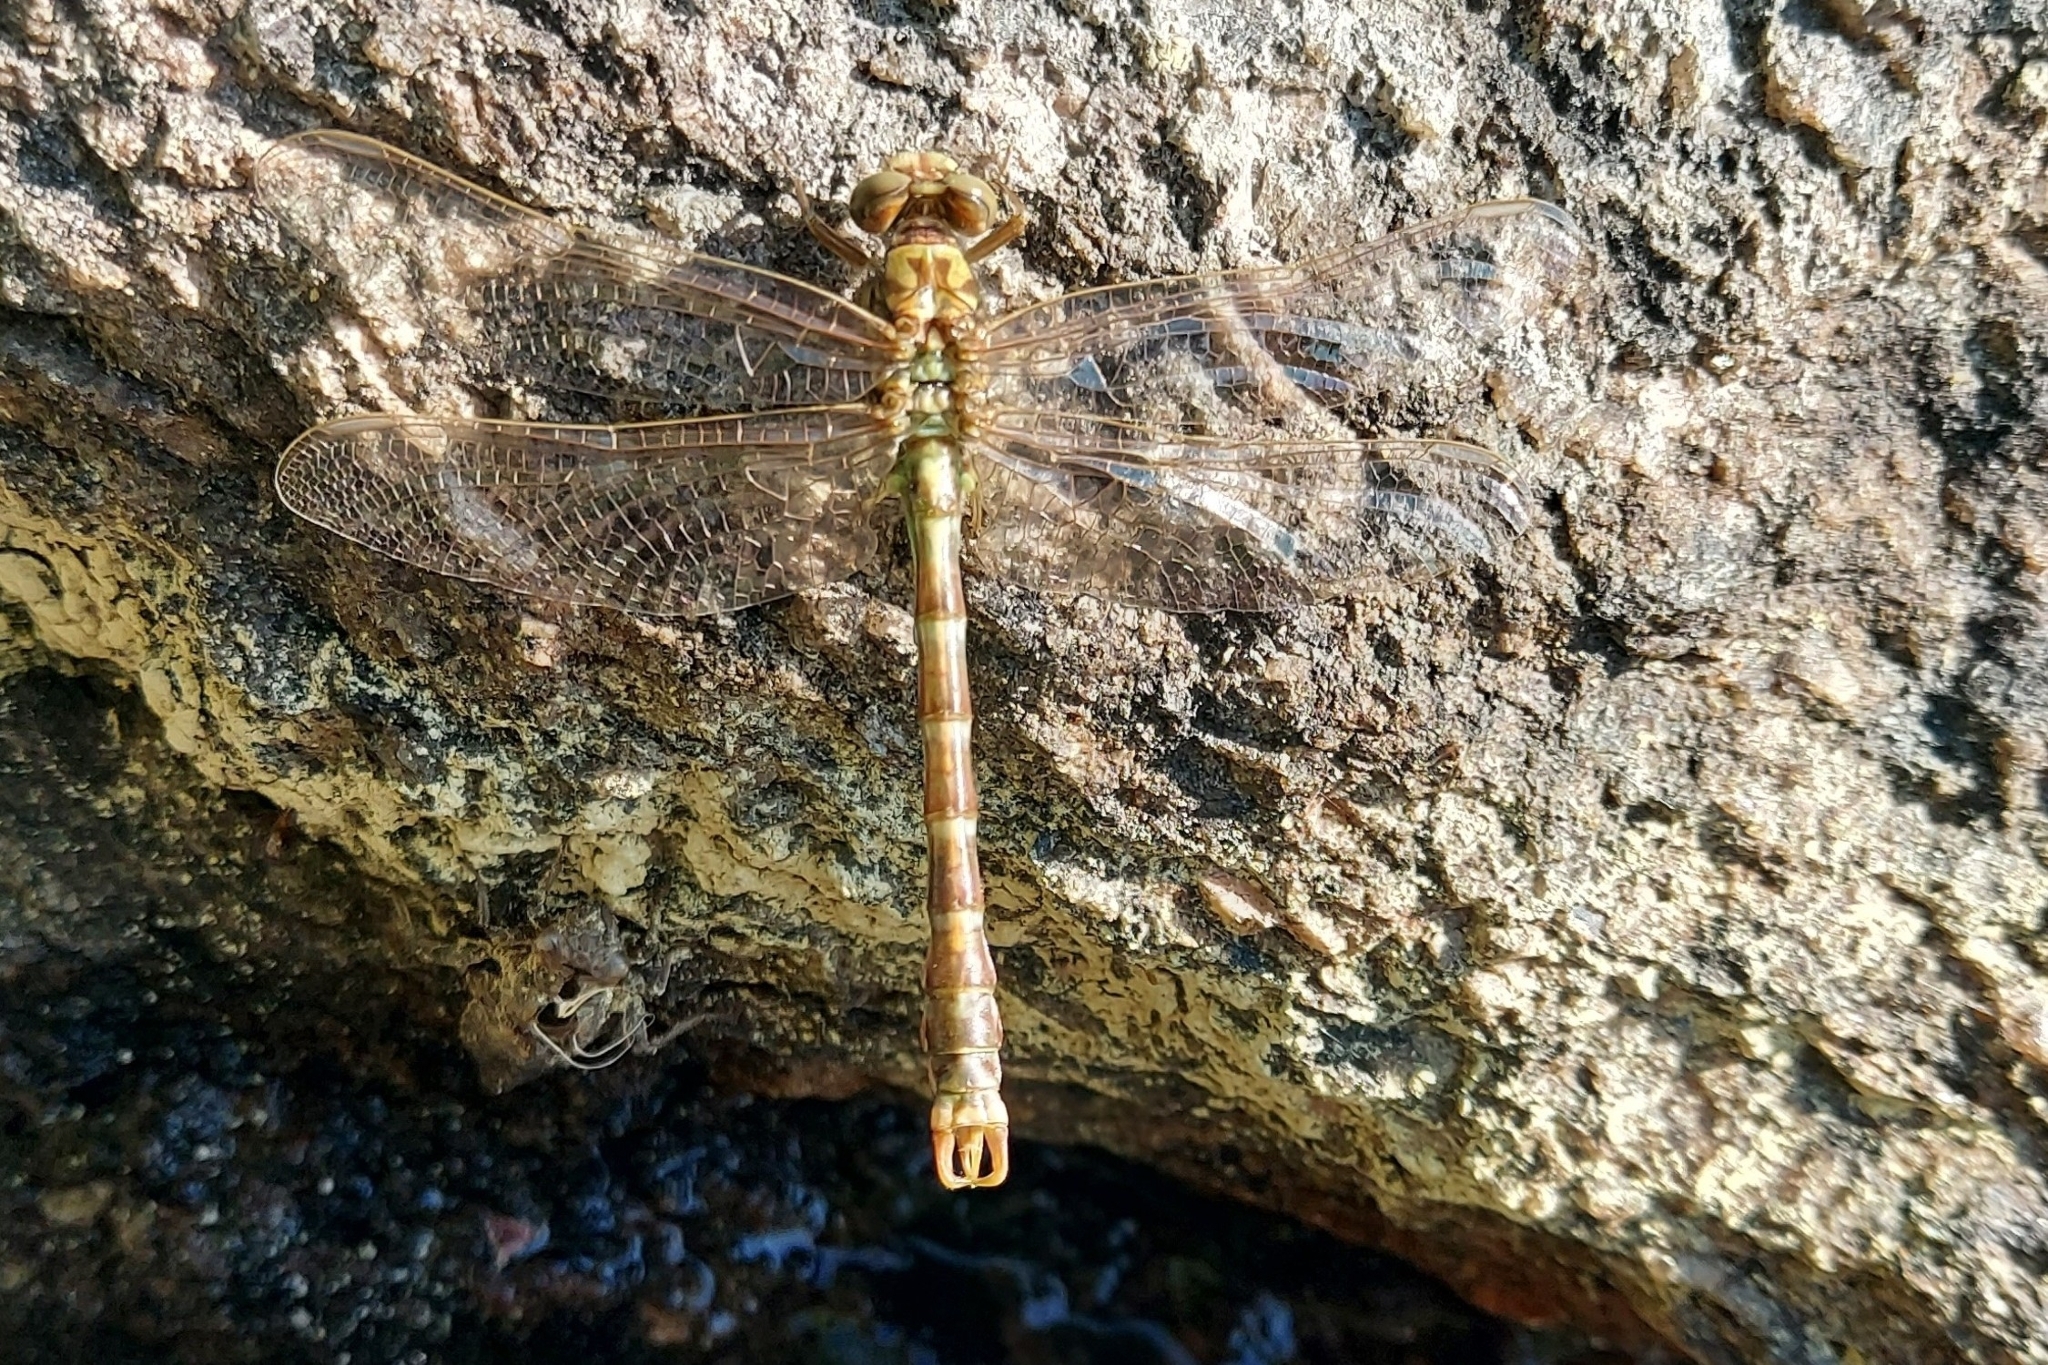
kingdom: Animalia
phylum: Arthropoda
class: Insecta
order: Odonata
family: Gomphidae
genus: Onychogomphus
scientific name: Onychogomphus forcipatus
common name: Small pincertail
